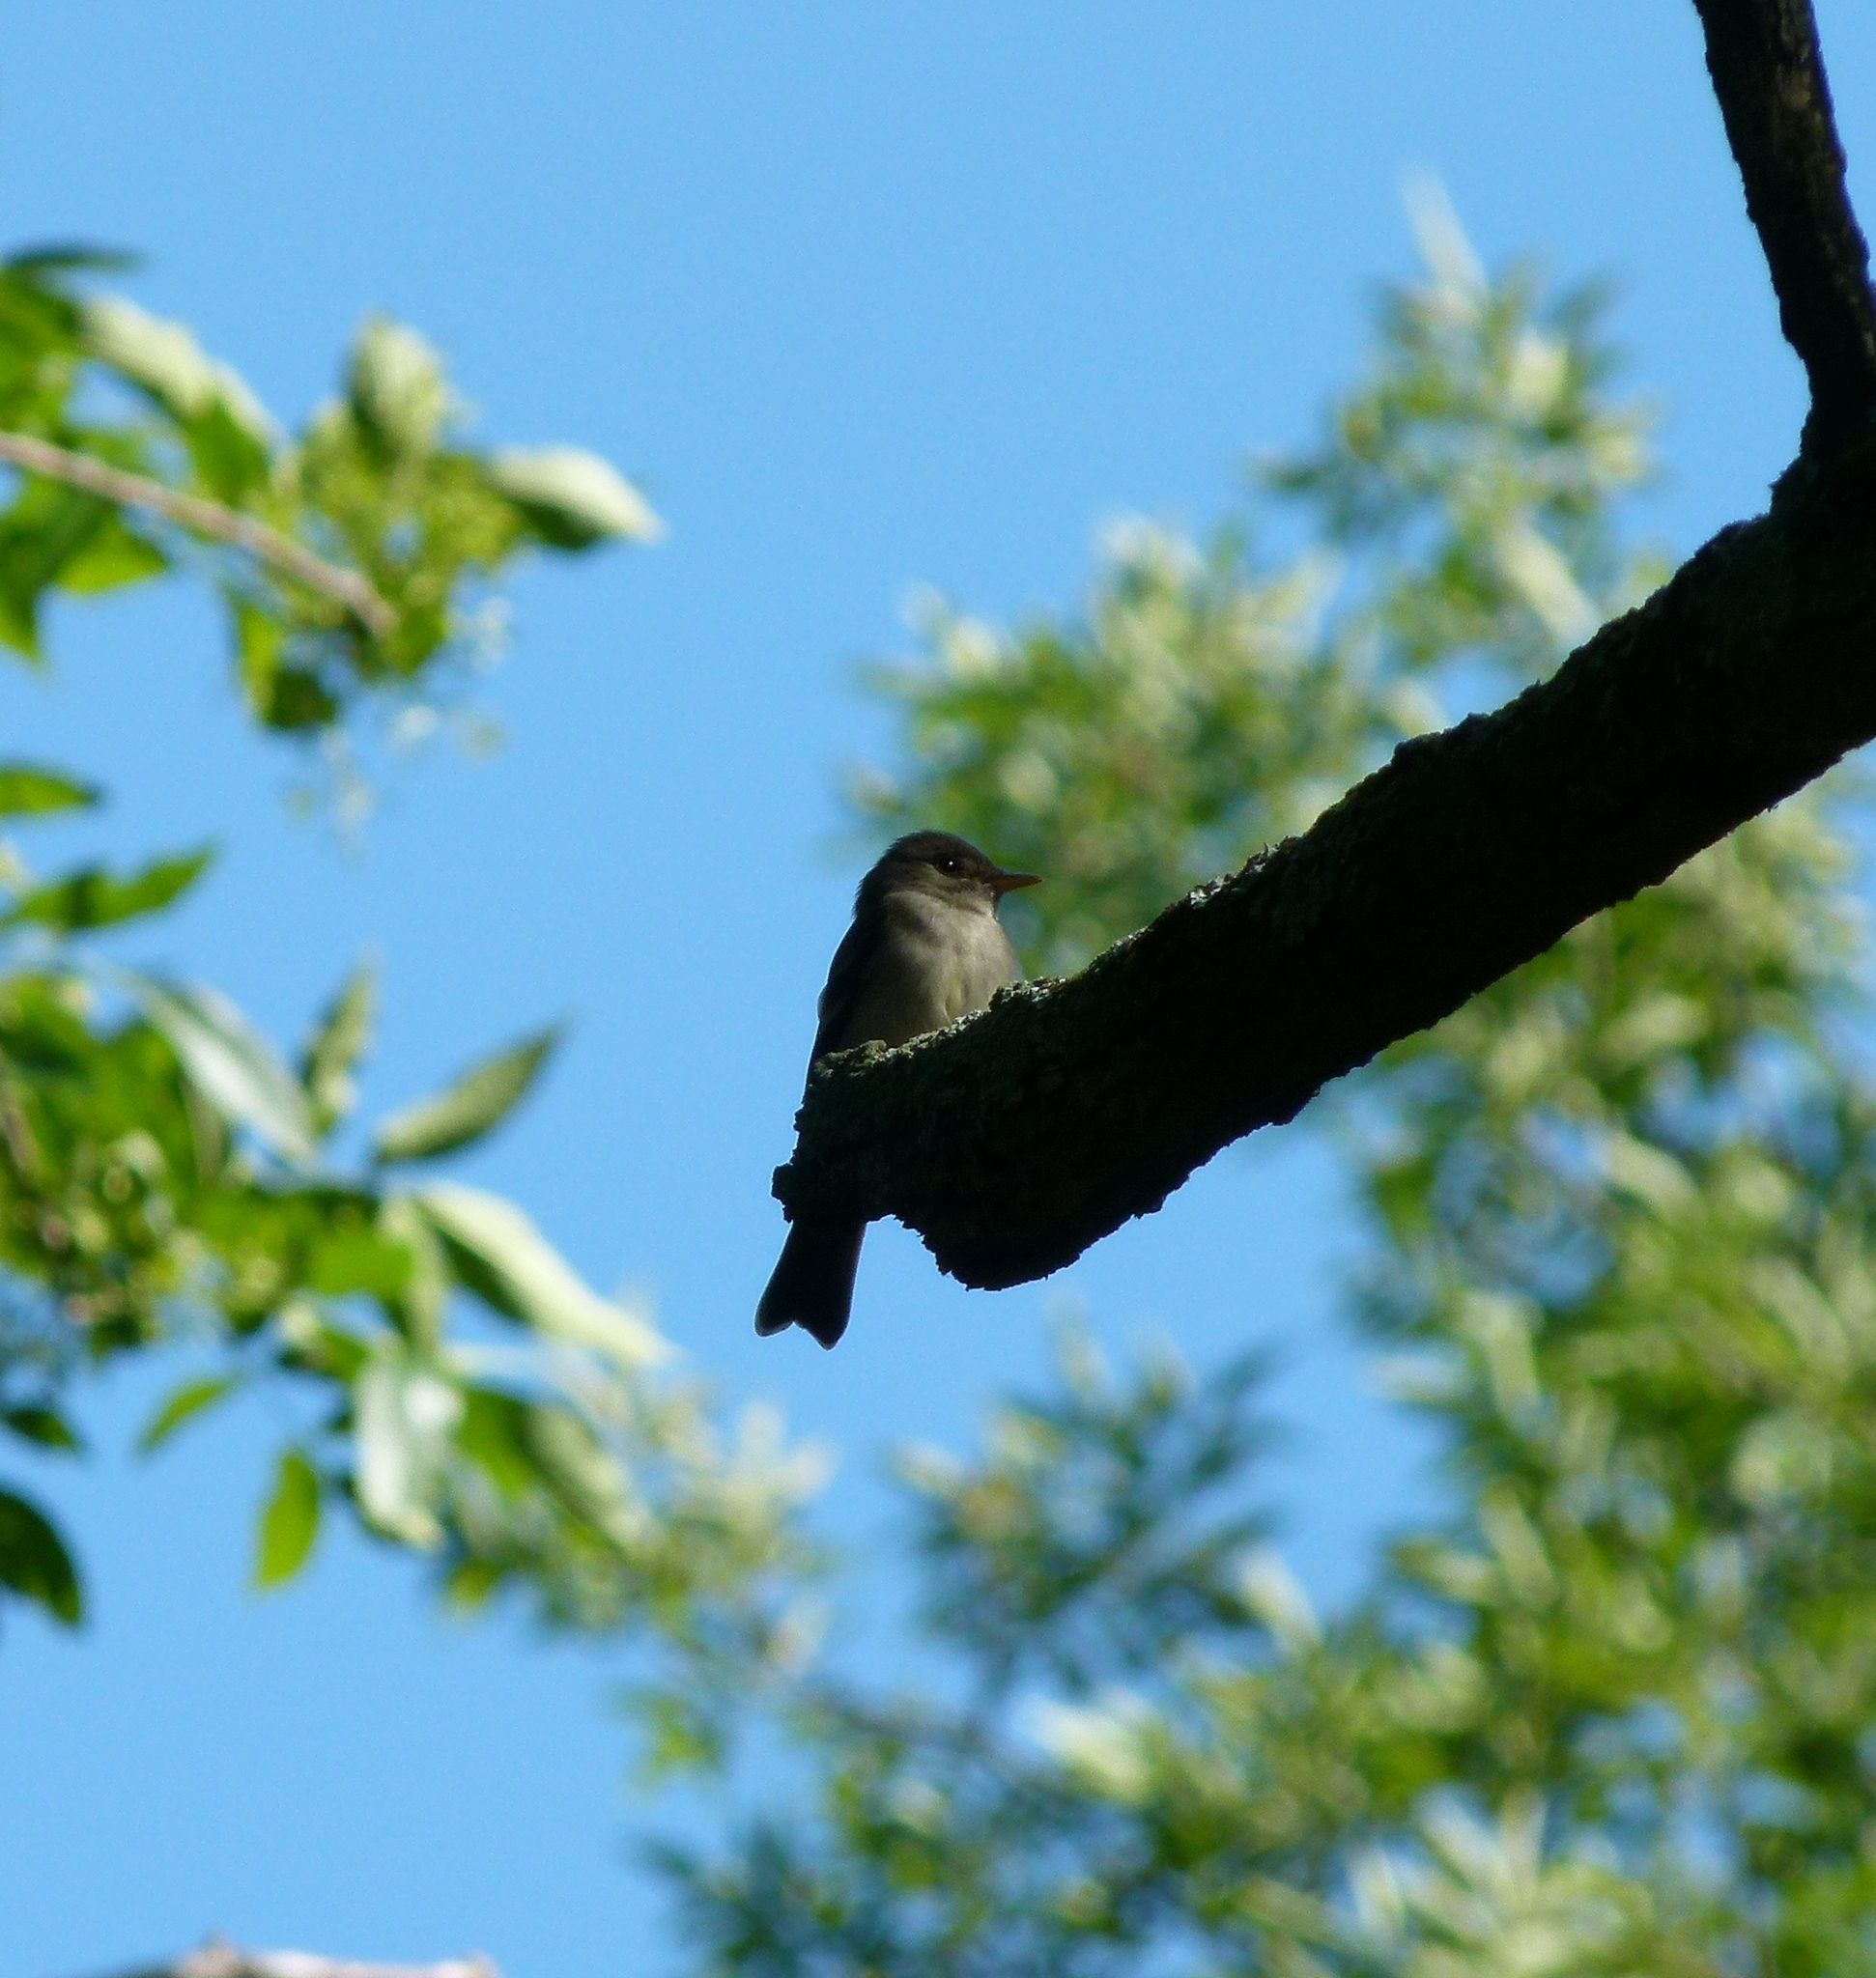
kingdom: Animalia
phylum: Chordata
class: Aves
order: Passeriformes
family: Tyrannidae
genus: Contopus
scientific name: Contopus virens
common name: Eastern wood-pewee
